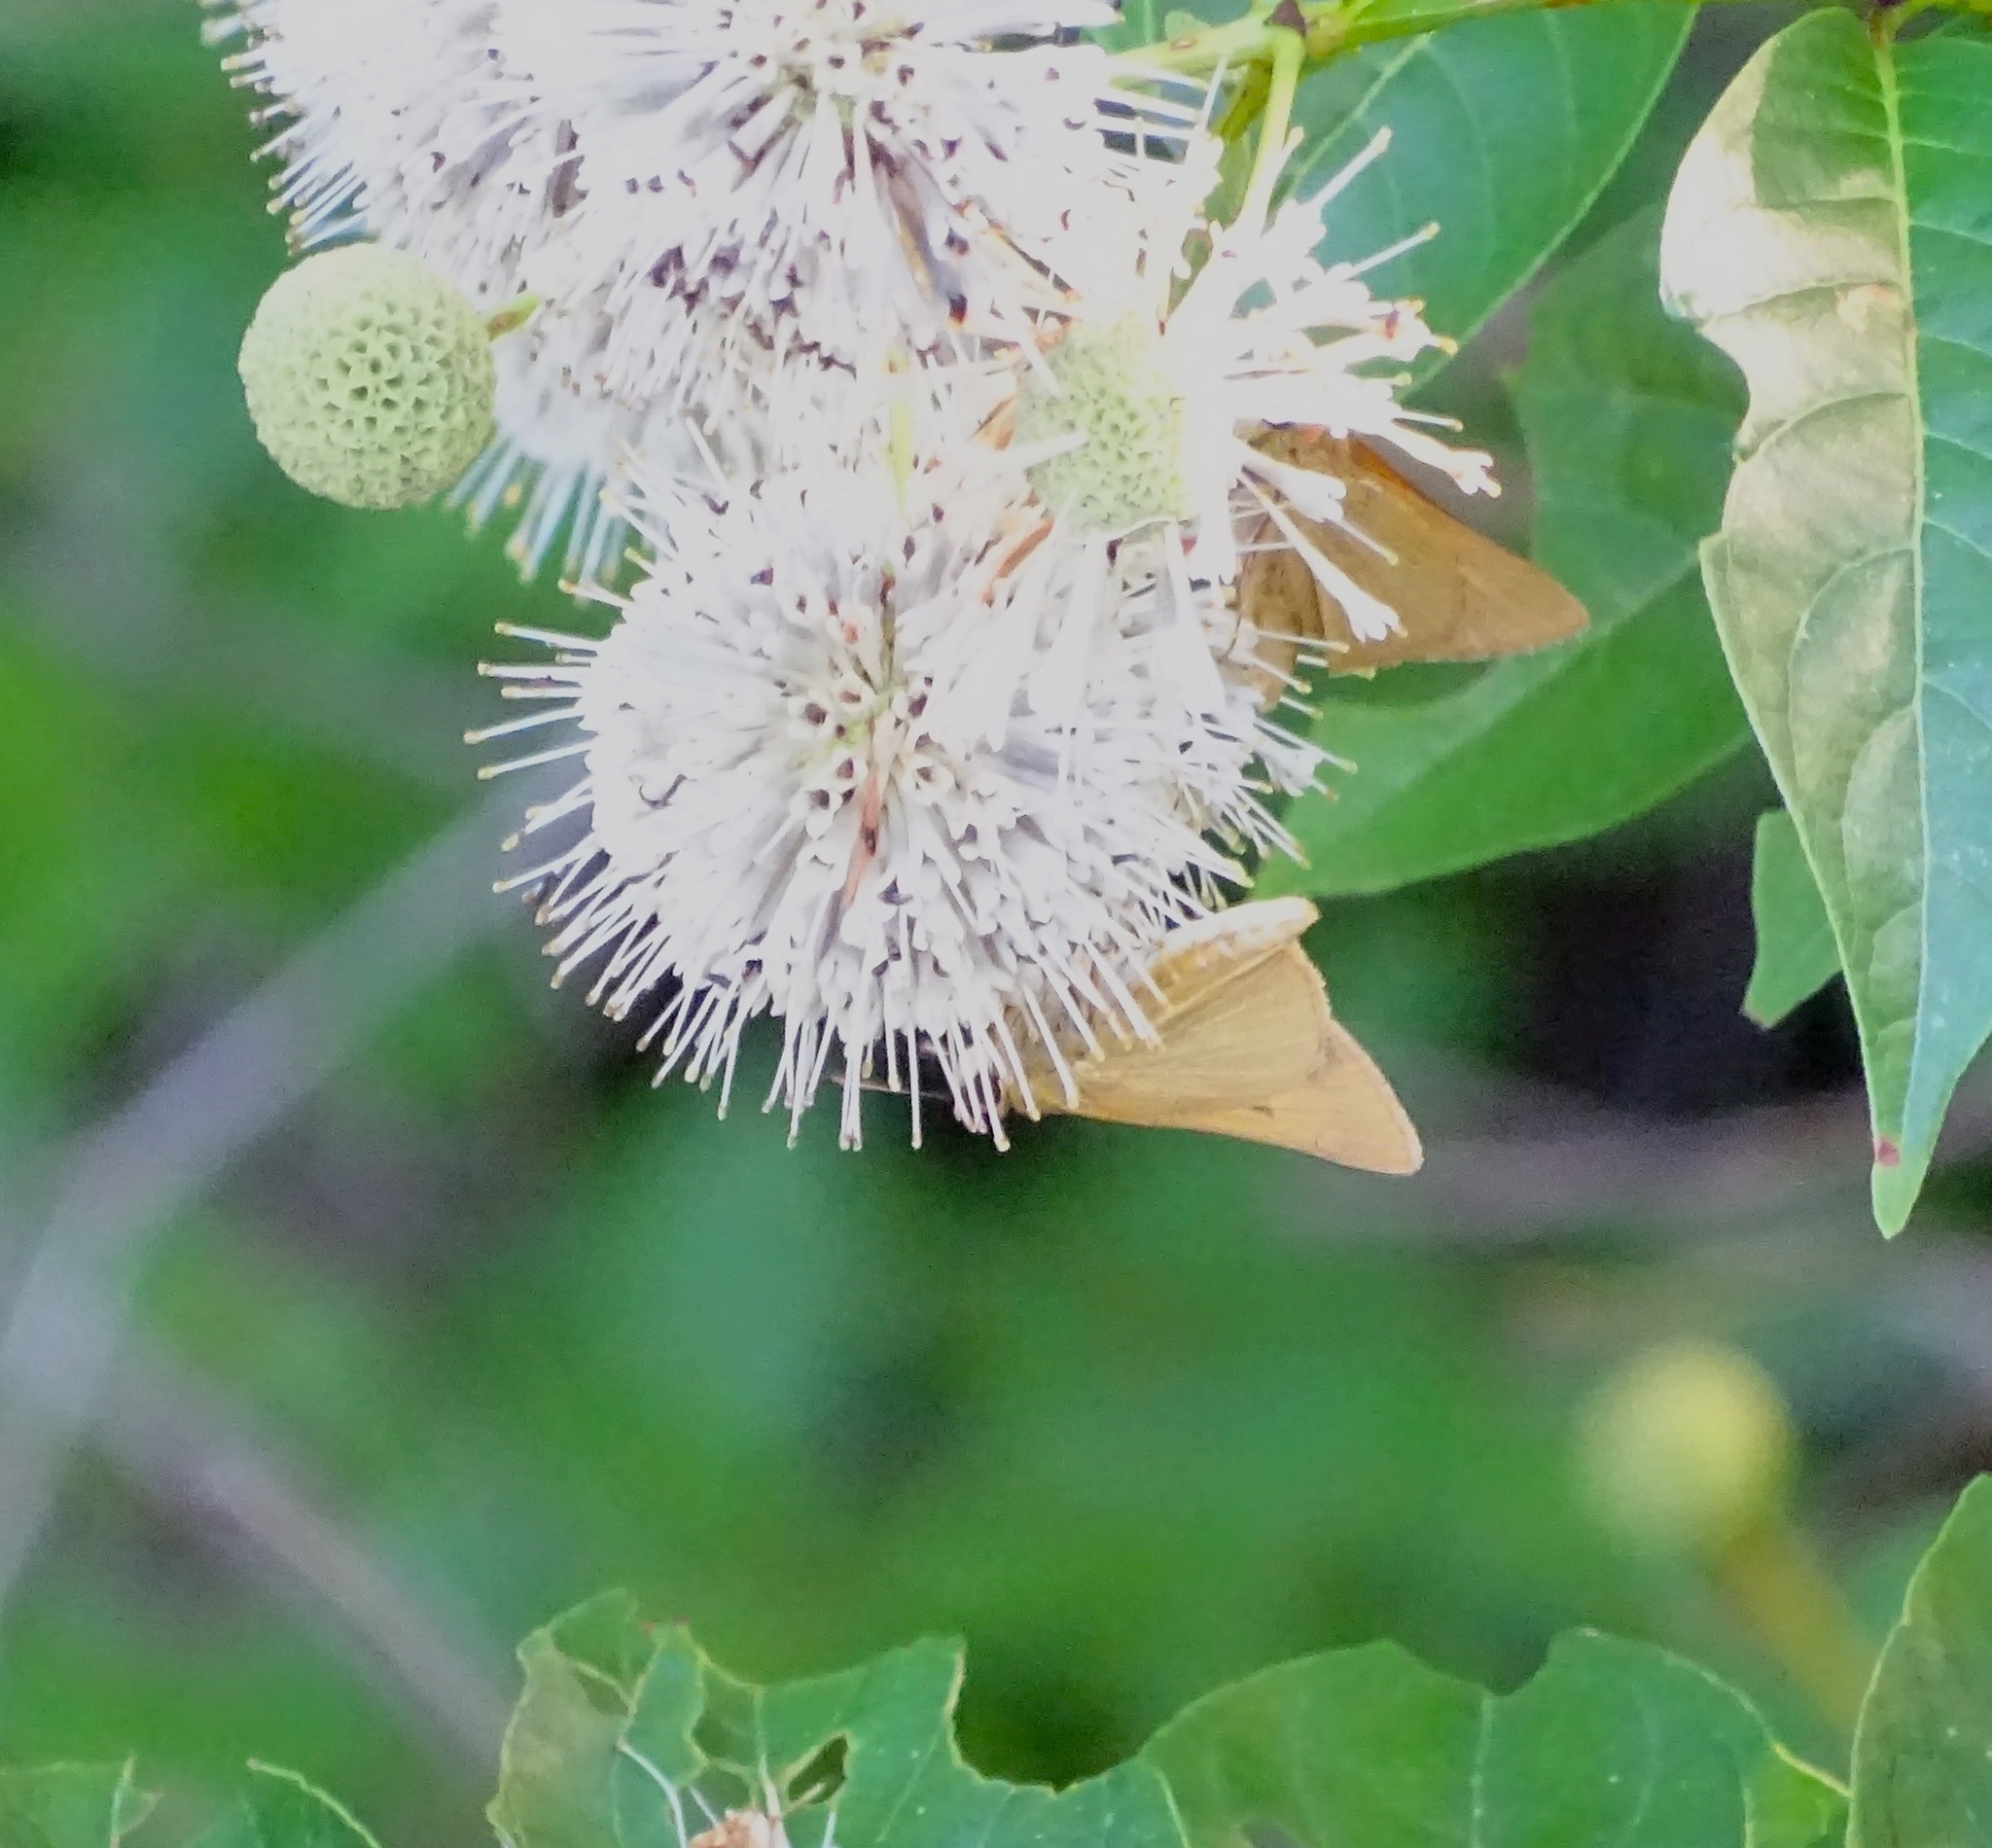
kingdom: Animalia
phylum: Arthropoda
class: Insecta
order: Lepidoptera
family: Hesperiidae
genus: Problema
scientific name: Problema bulenta
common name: Rare skipper
